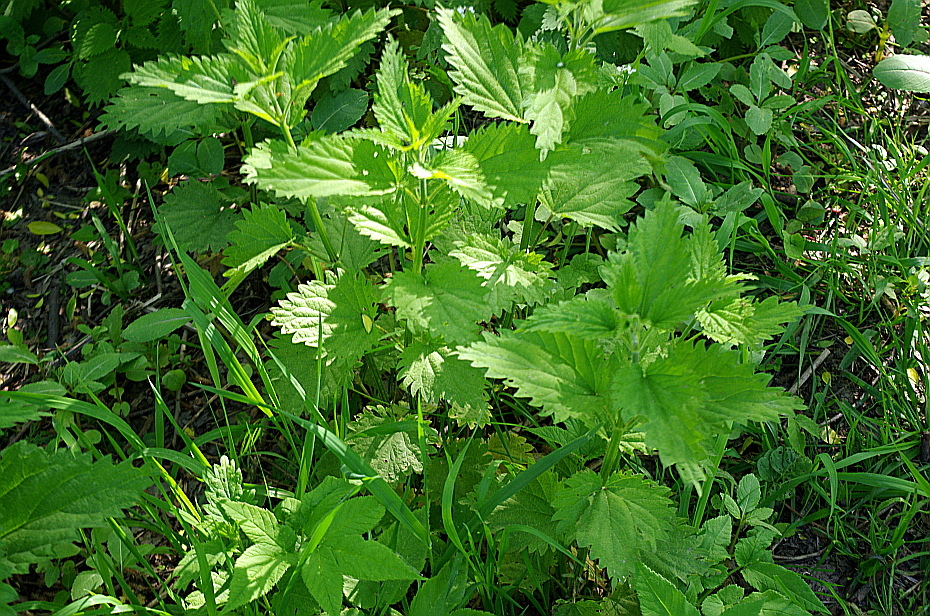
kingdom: Plantae
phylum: Tracheophyta
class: Magnoliopsida
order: Rosales
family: Urticaceae
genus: Urtica
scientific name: Urtica dioica
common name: Common nettle
